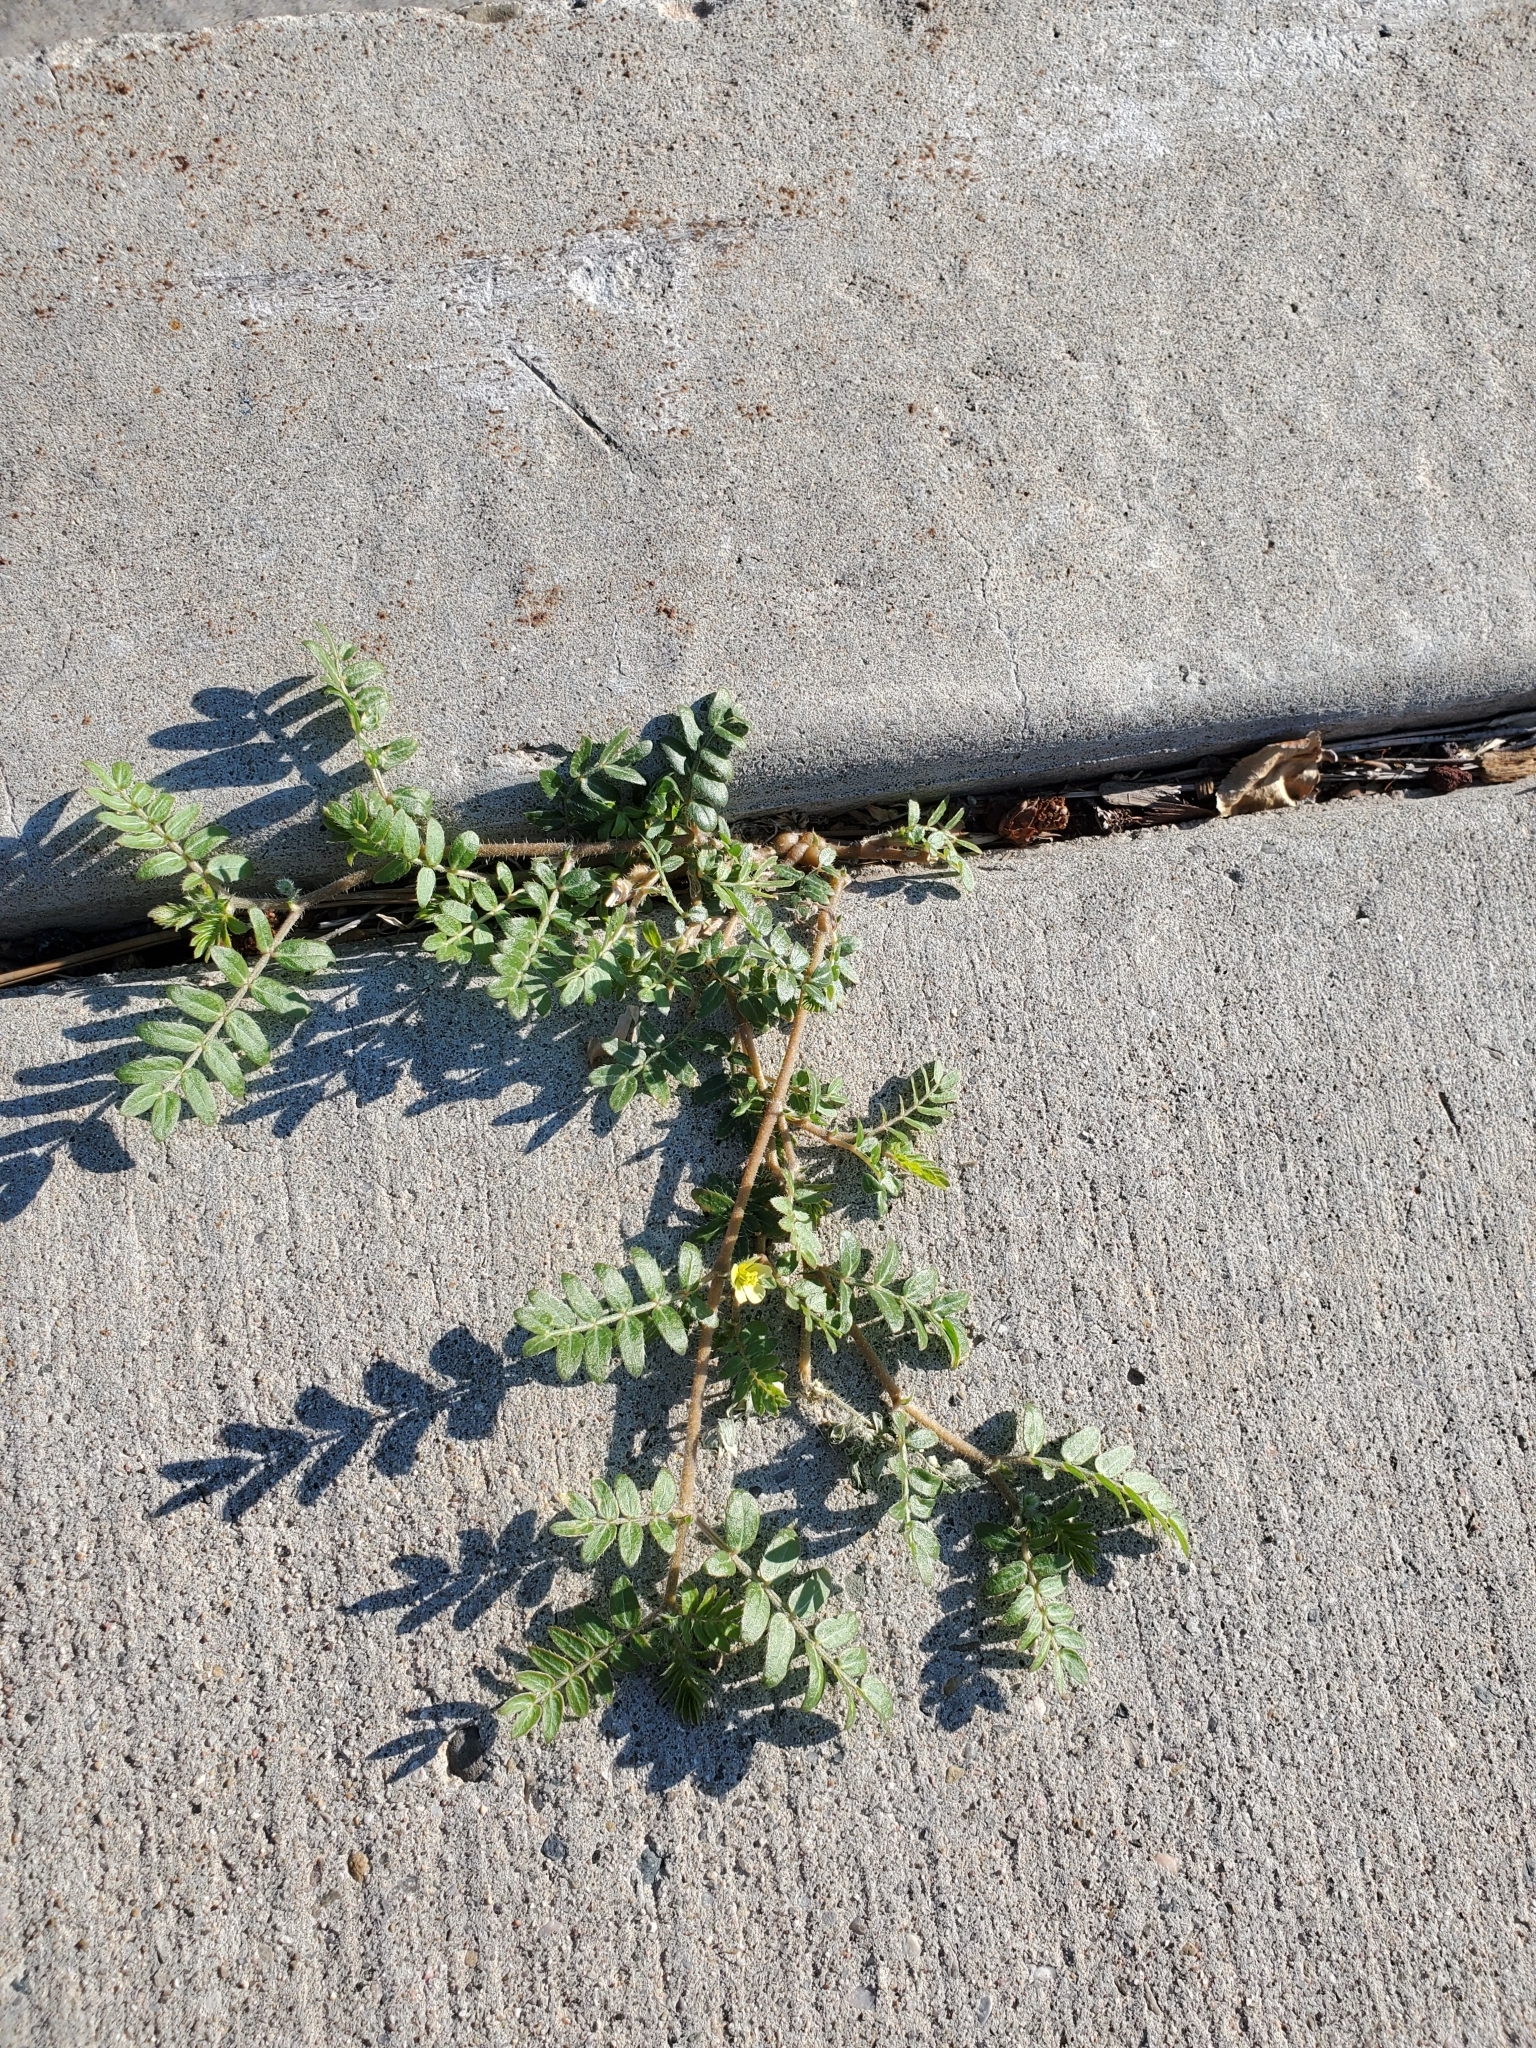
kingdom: Plantae
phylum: Tracheophyta
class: Magnoliopsida
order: Zygophyllales
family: Zygophyllaceae
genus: Tribulus
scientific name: Tribulus terrestris
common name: Puncturevine
